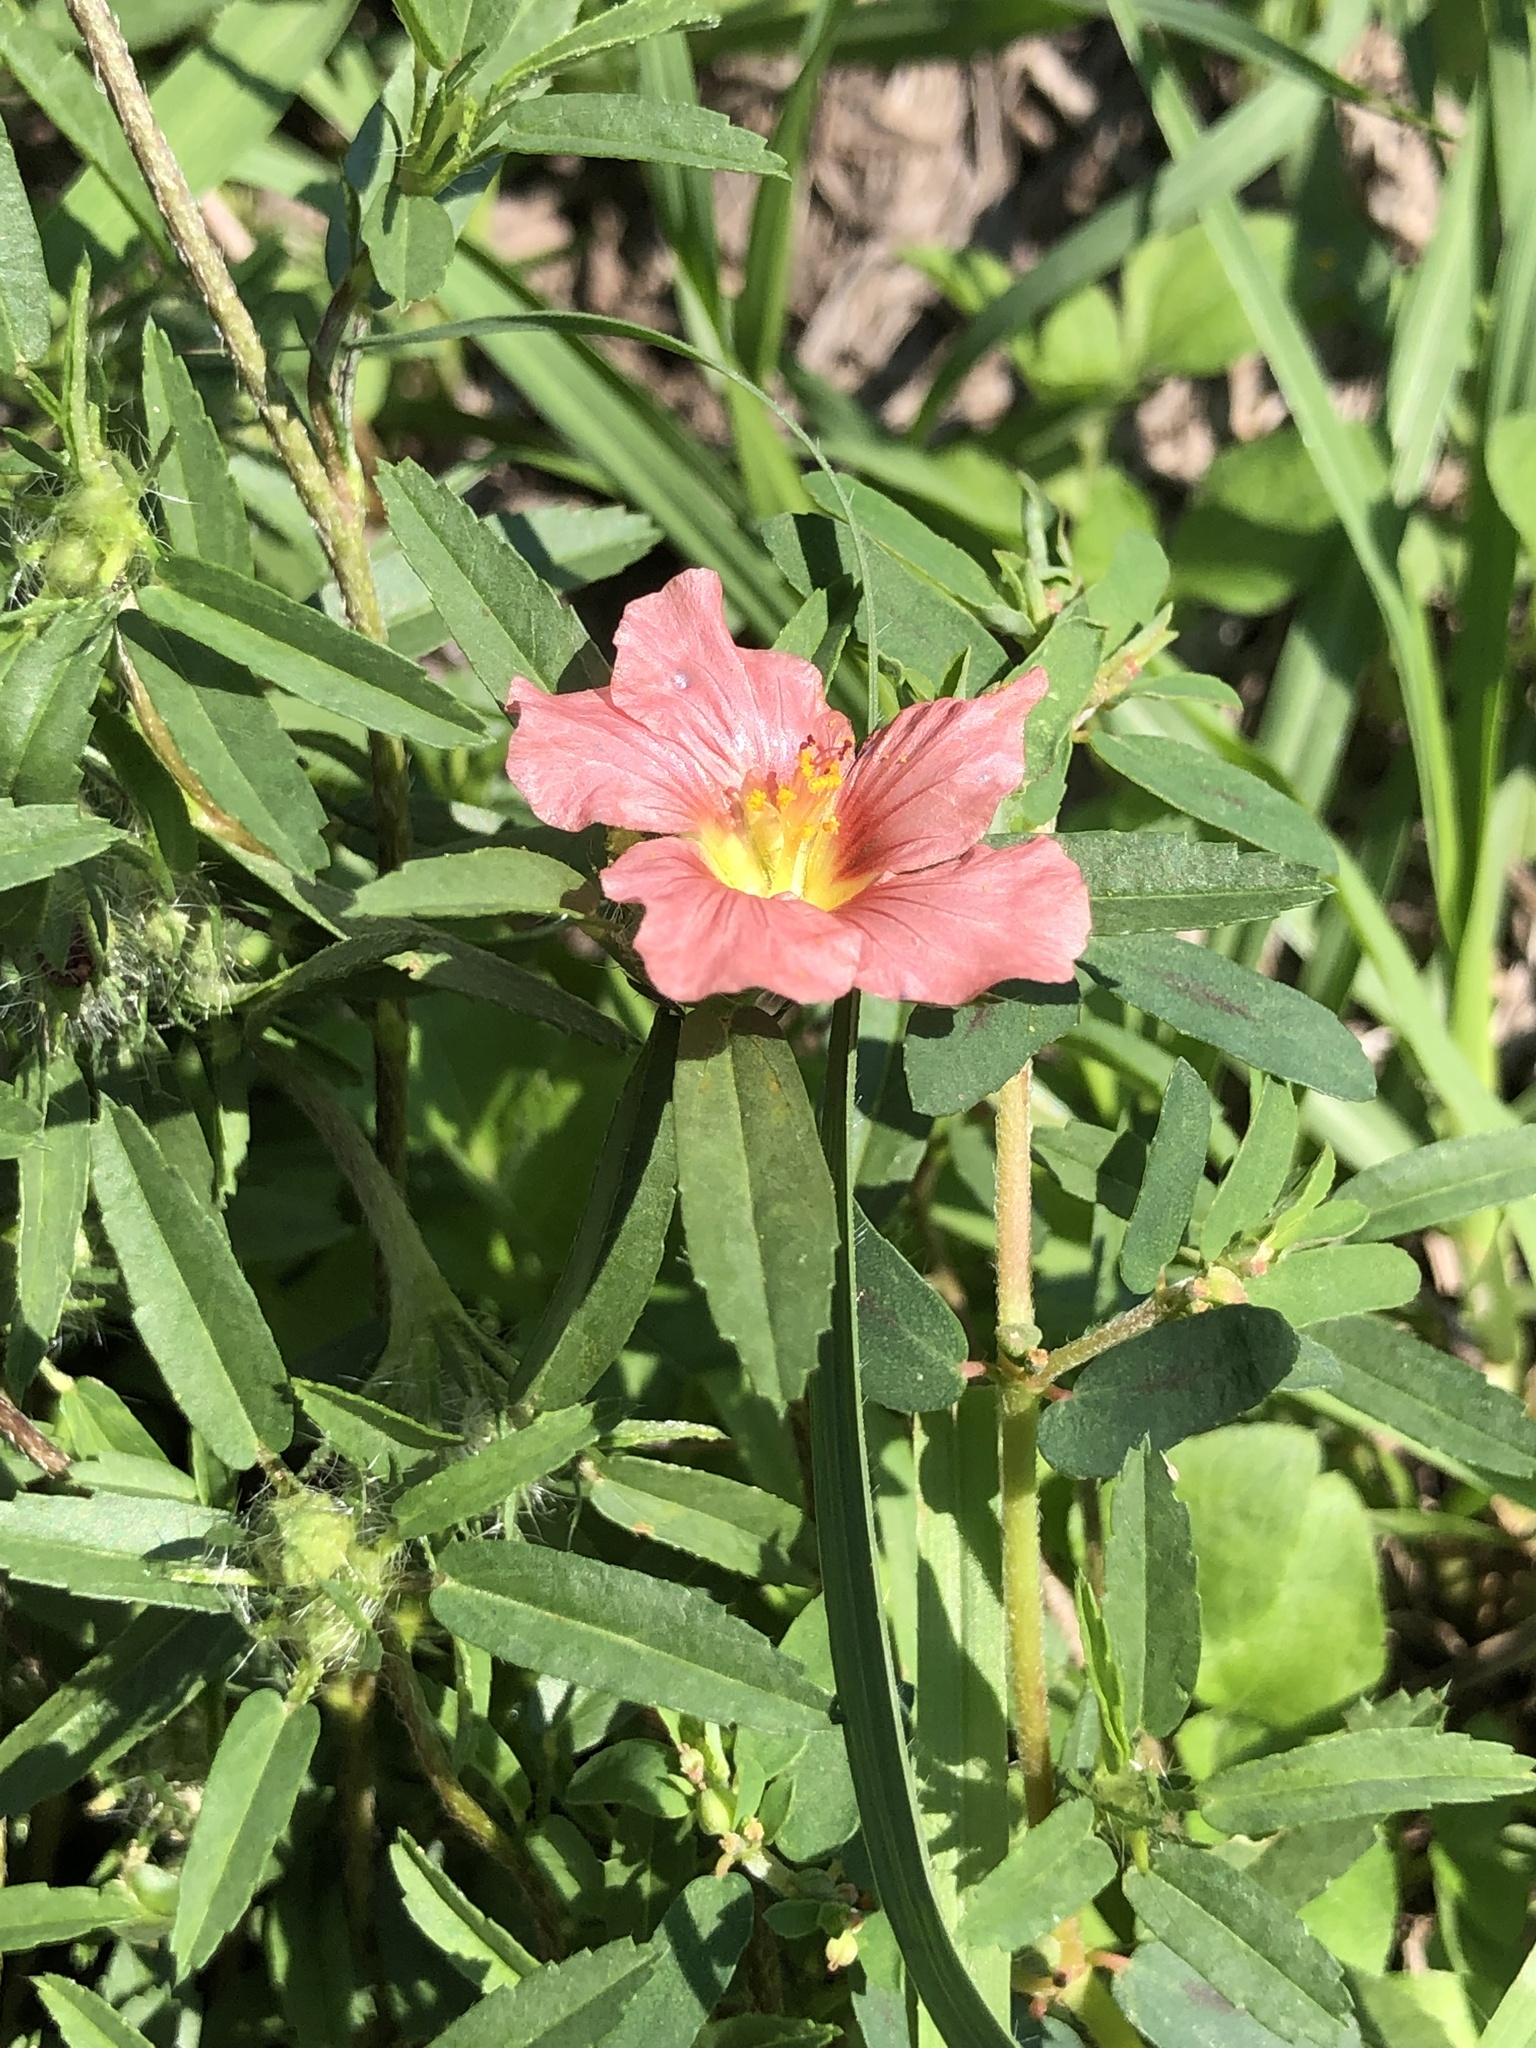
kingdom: Plantae
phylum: Tracheophyta
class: Magnoliopsida
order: Malvales
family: Malvaceae
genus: Sida
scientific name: Sida ciliaris
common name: Bracted fanpetals
